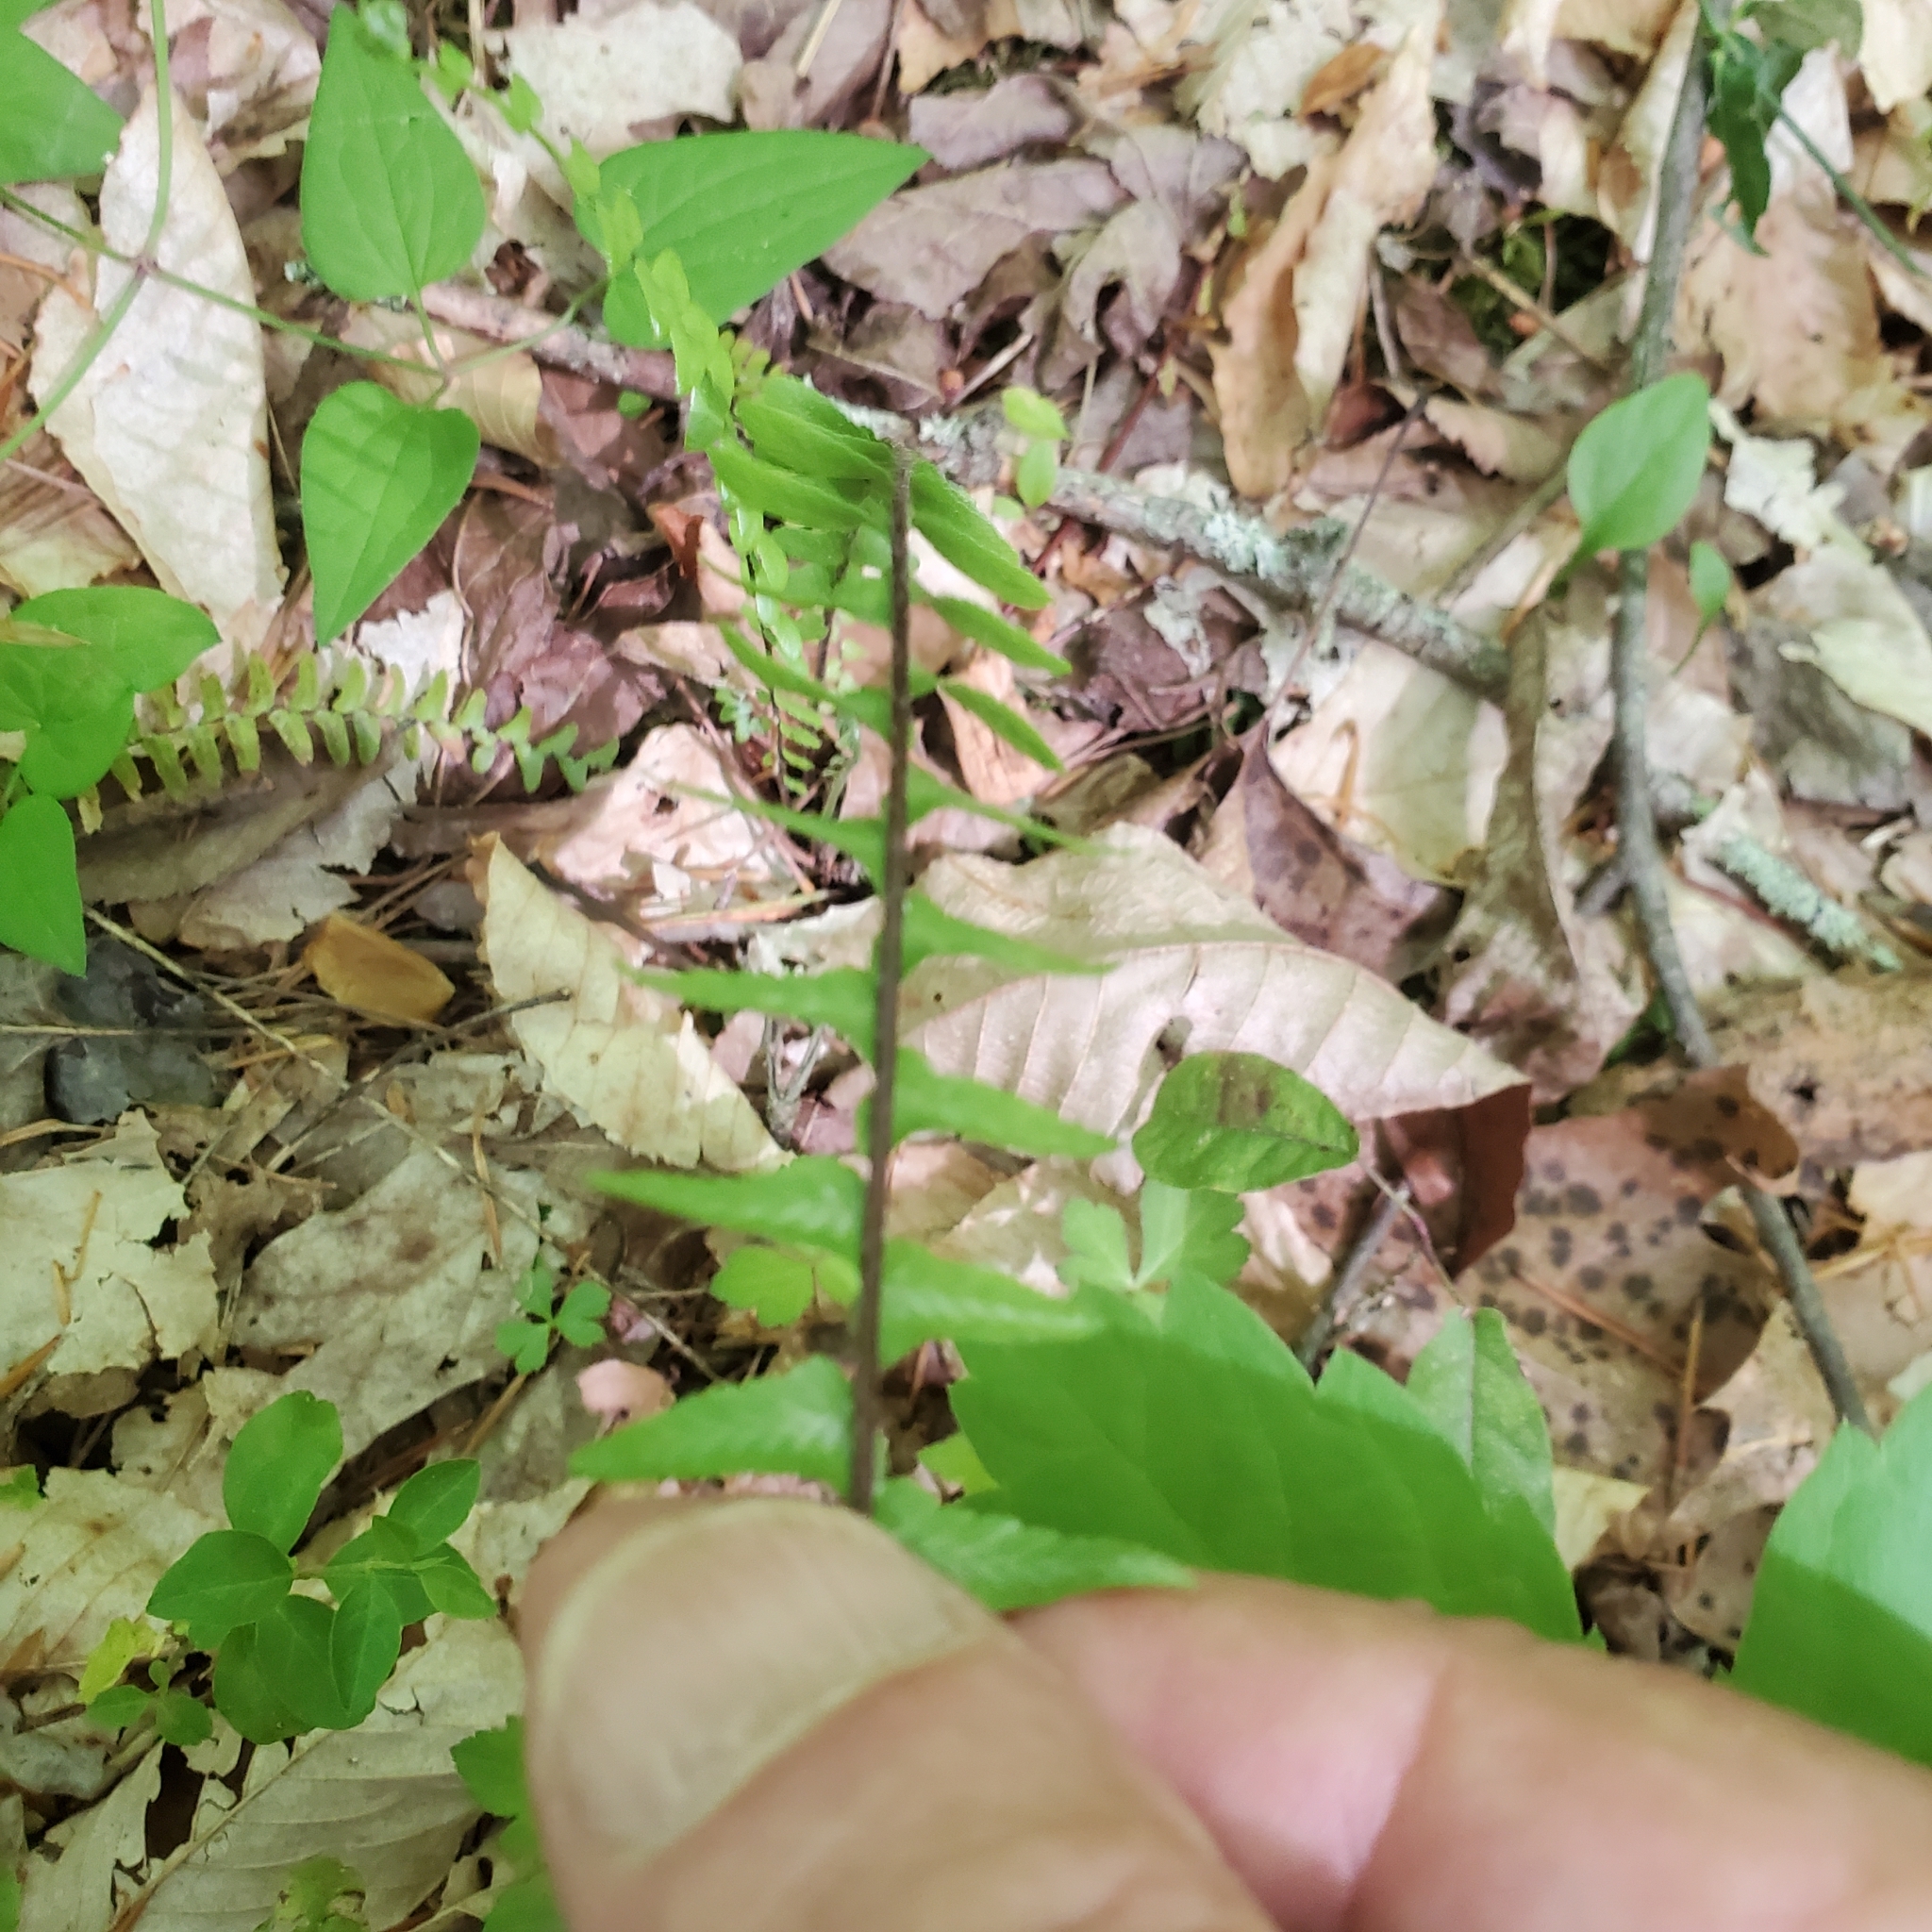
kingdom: Plantae
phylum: Tracheophyta
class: Polypodiopsida
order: Polypodiales
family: Aspleniaceae
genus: Asplenium
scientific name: Asplenium platyneuron
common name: Ebony spleenwort
